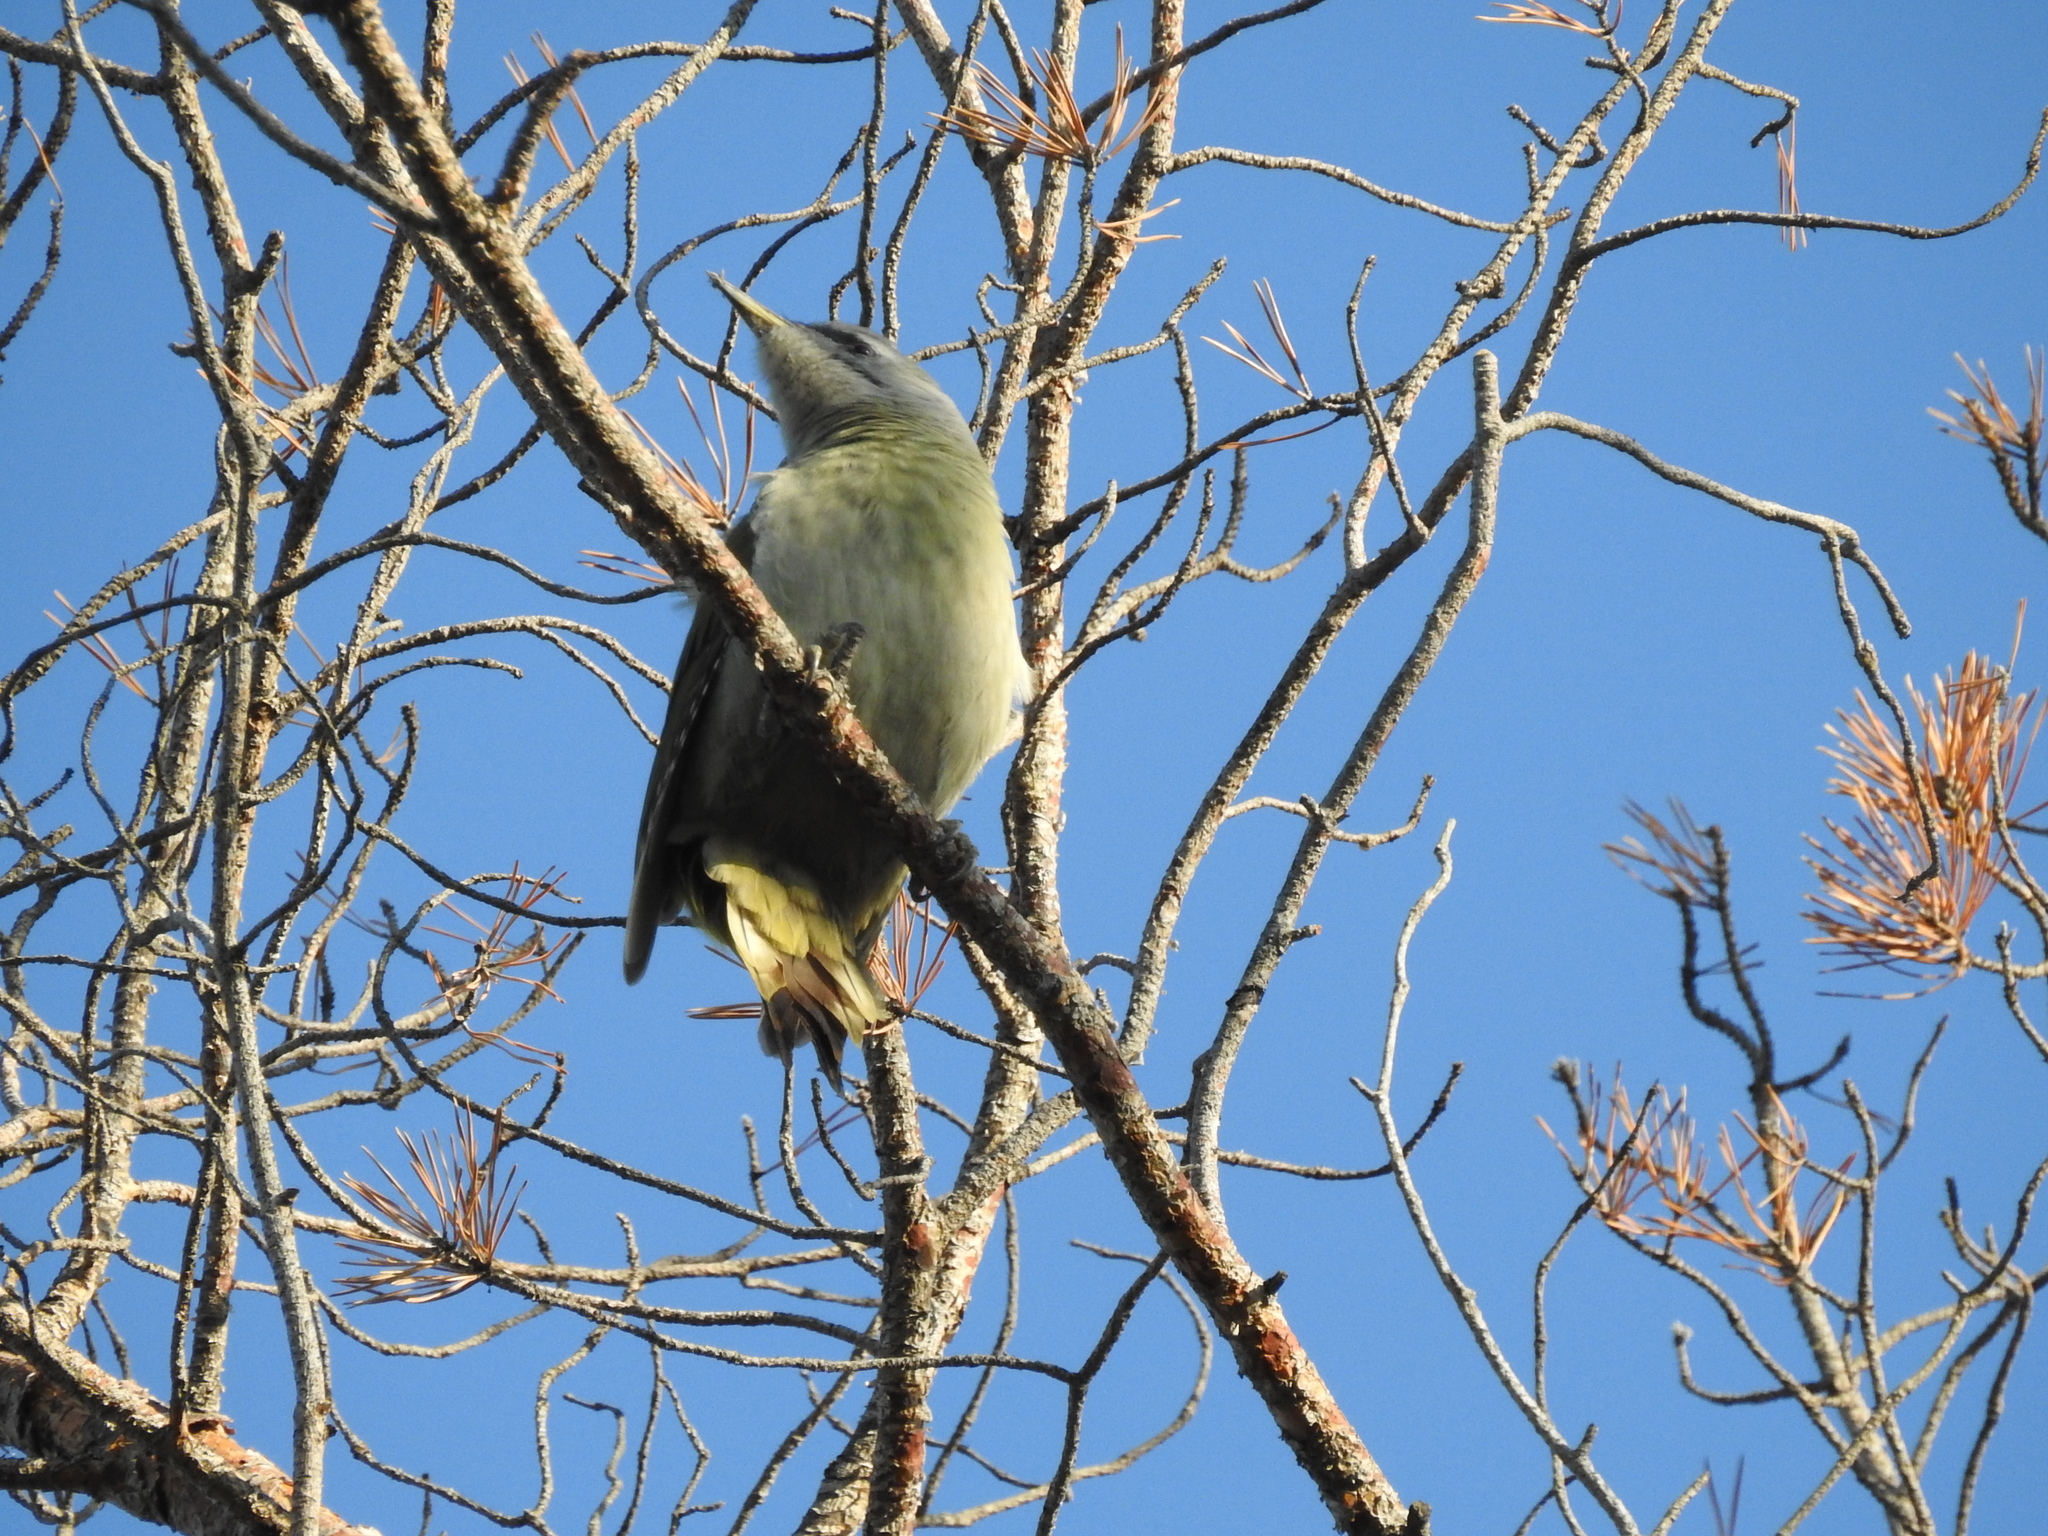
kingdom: Animalia
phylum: Chordata
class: Aves
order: Piciformes
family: Picidae
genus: Picus
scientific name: Picus canus
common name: Grey-headed woodpecker
